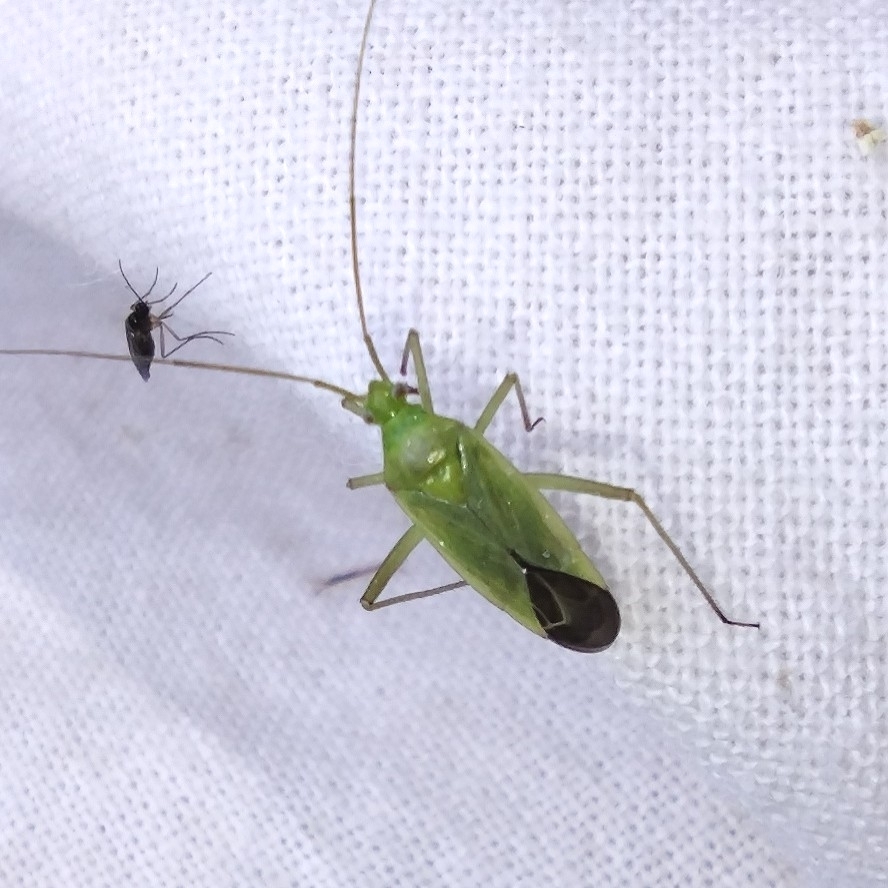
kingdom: Animalia
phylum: Arthropoda
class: Insecta
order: Hemiptera
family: Miridae
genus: Calocoris
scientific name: Calocoris affinis
